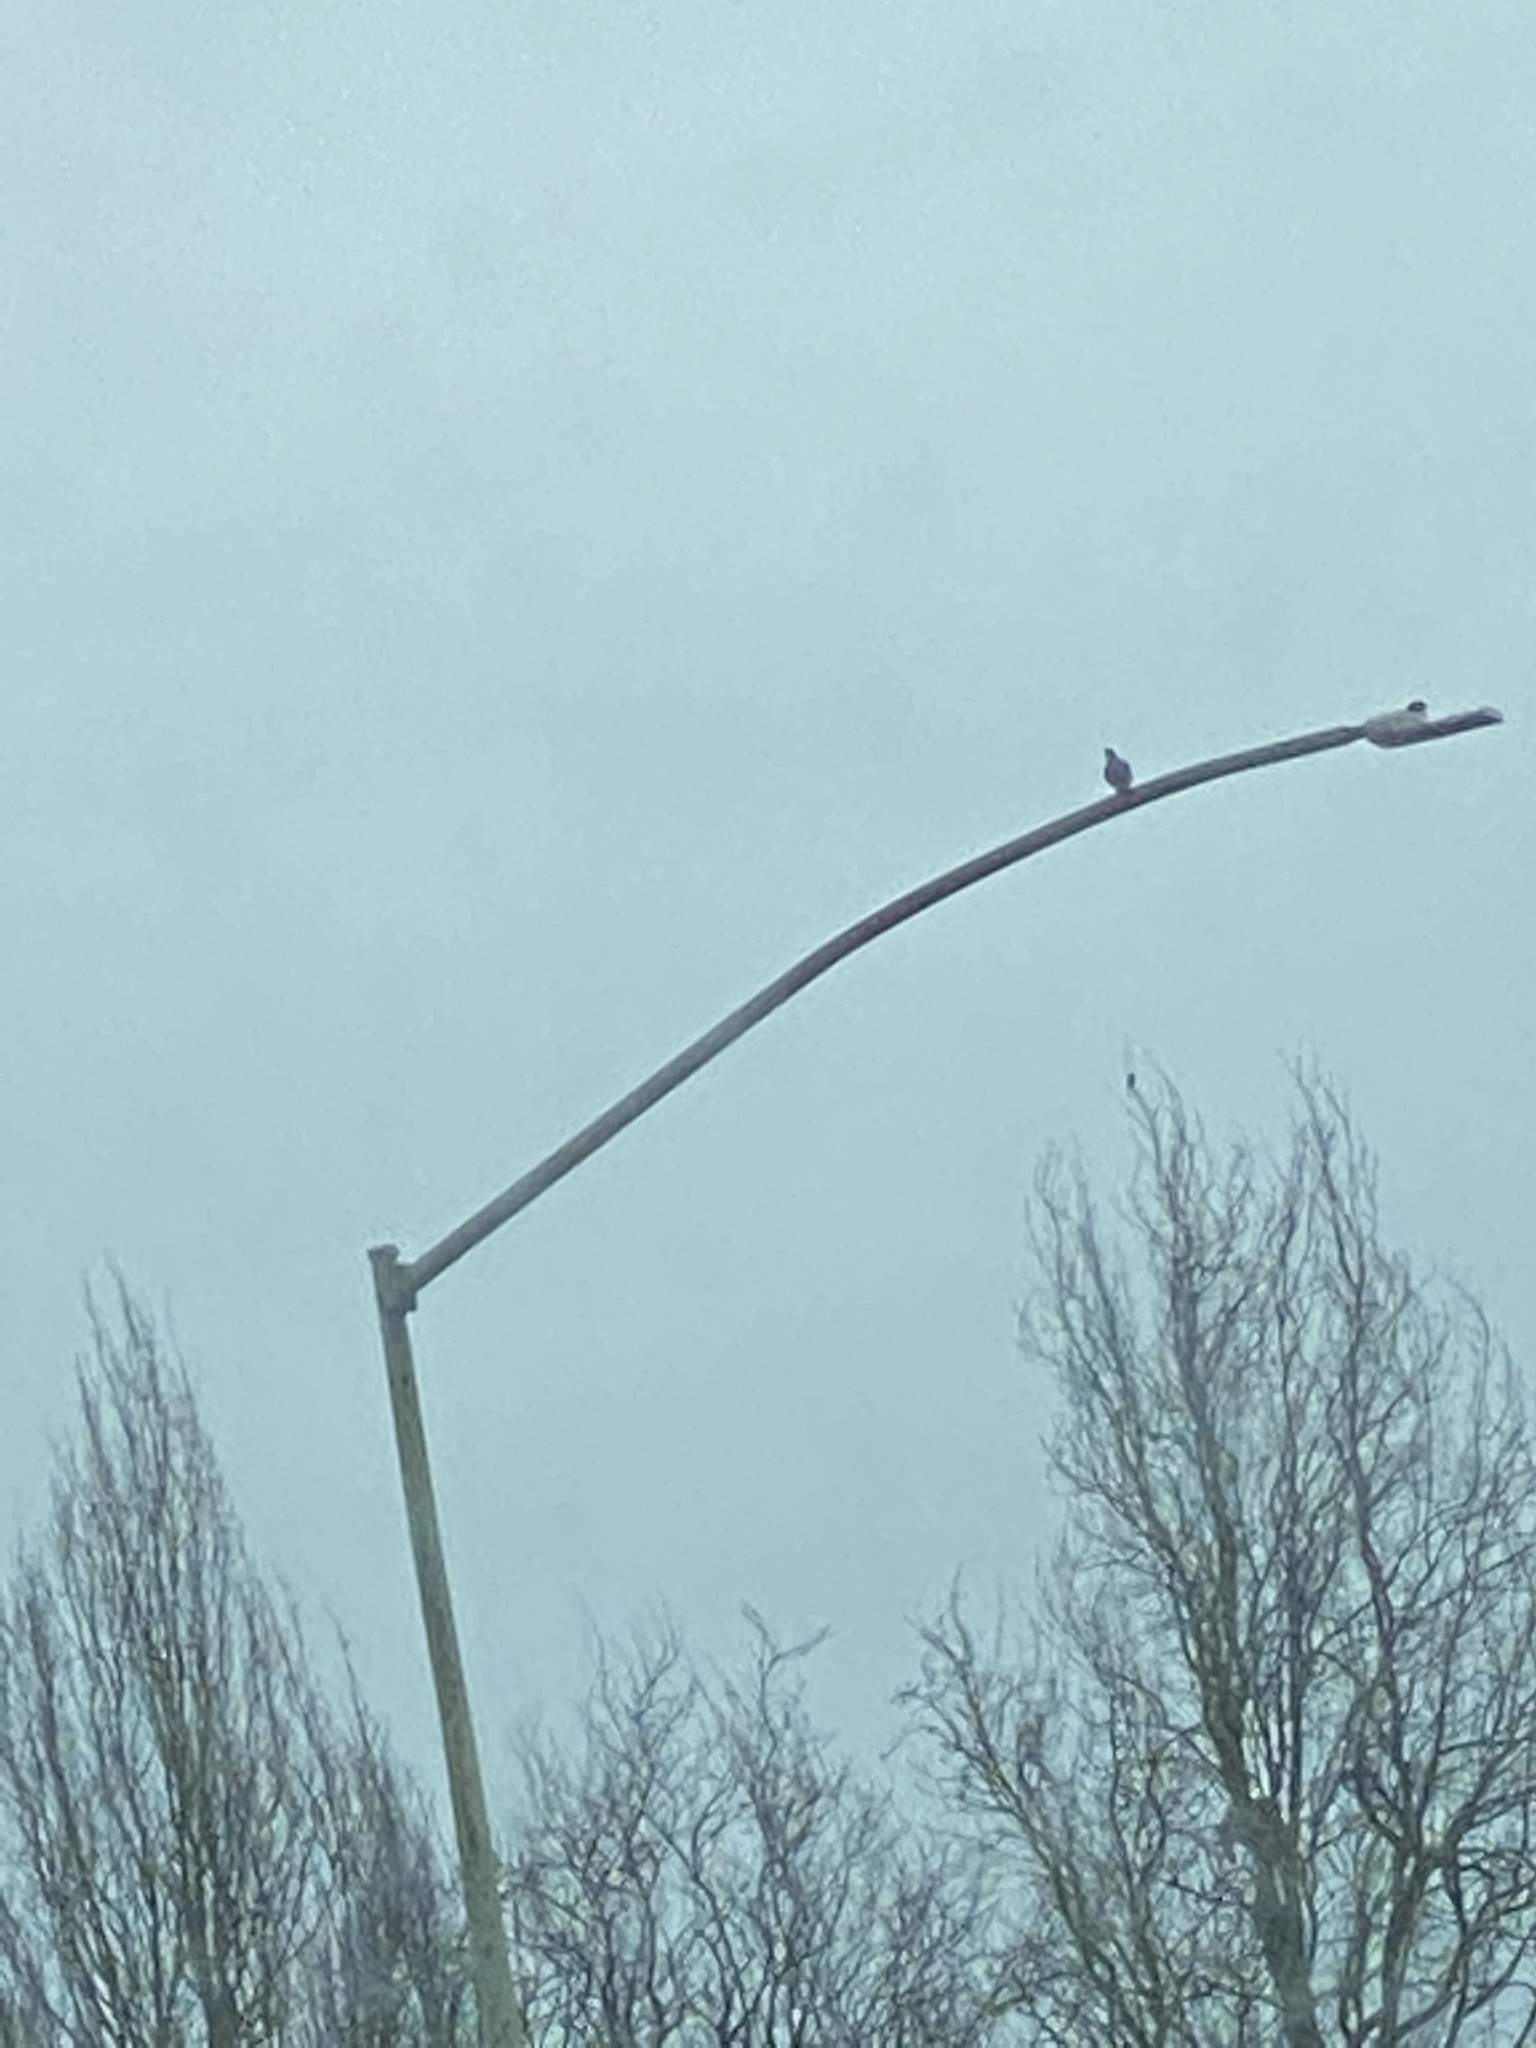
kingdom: Animalia
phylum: Chordata
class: Aves
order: Columbiformes
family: Columbidae
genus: Columba
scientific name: Columba livia
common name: Rock pigeon
